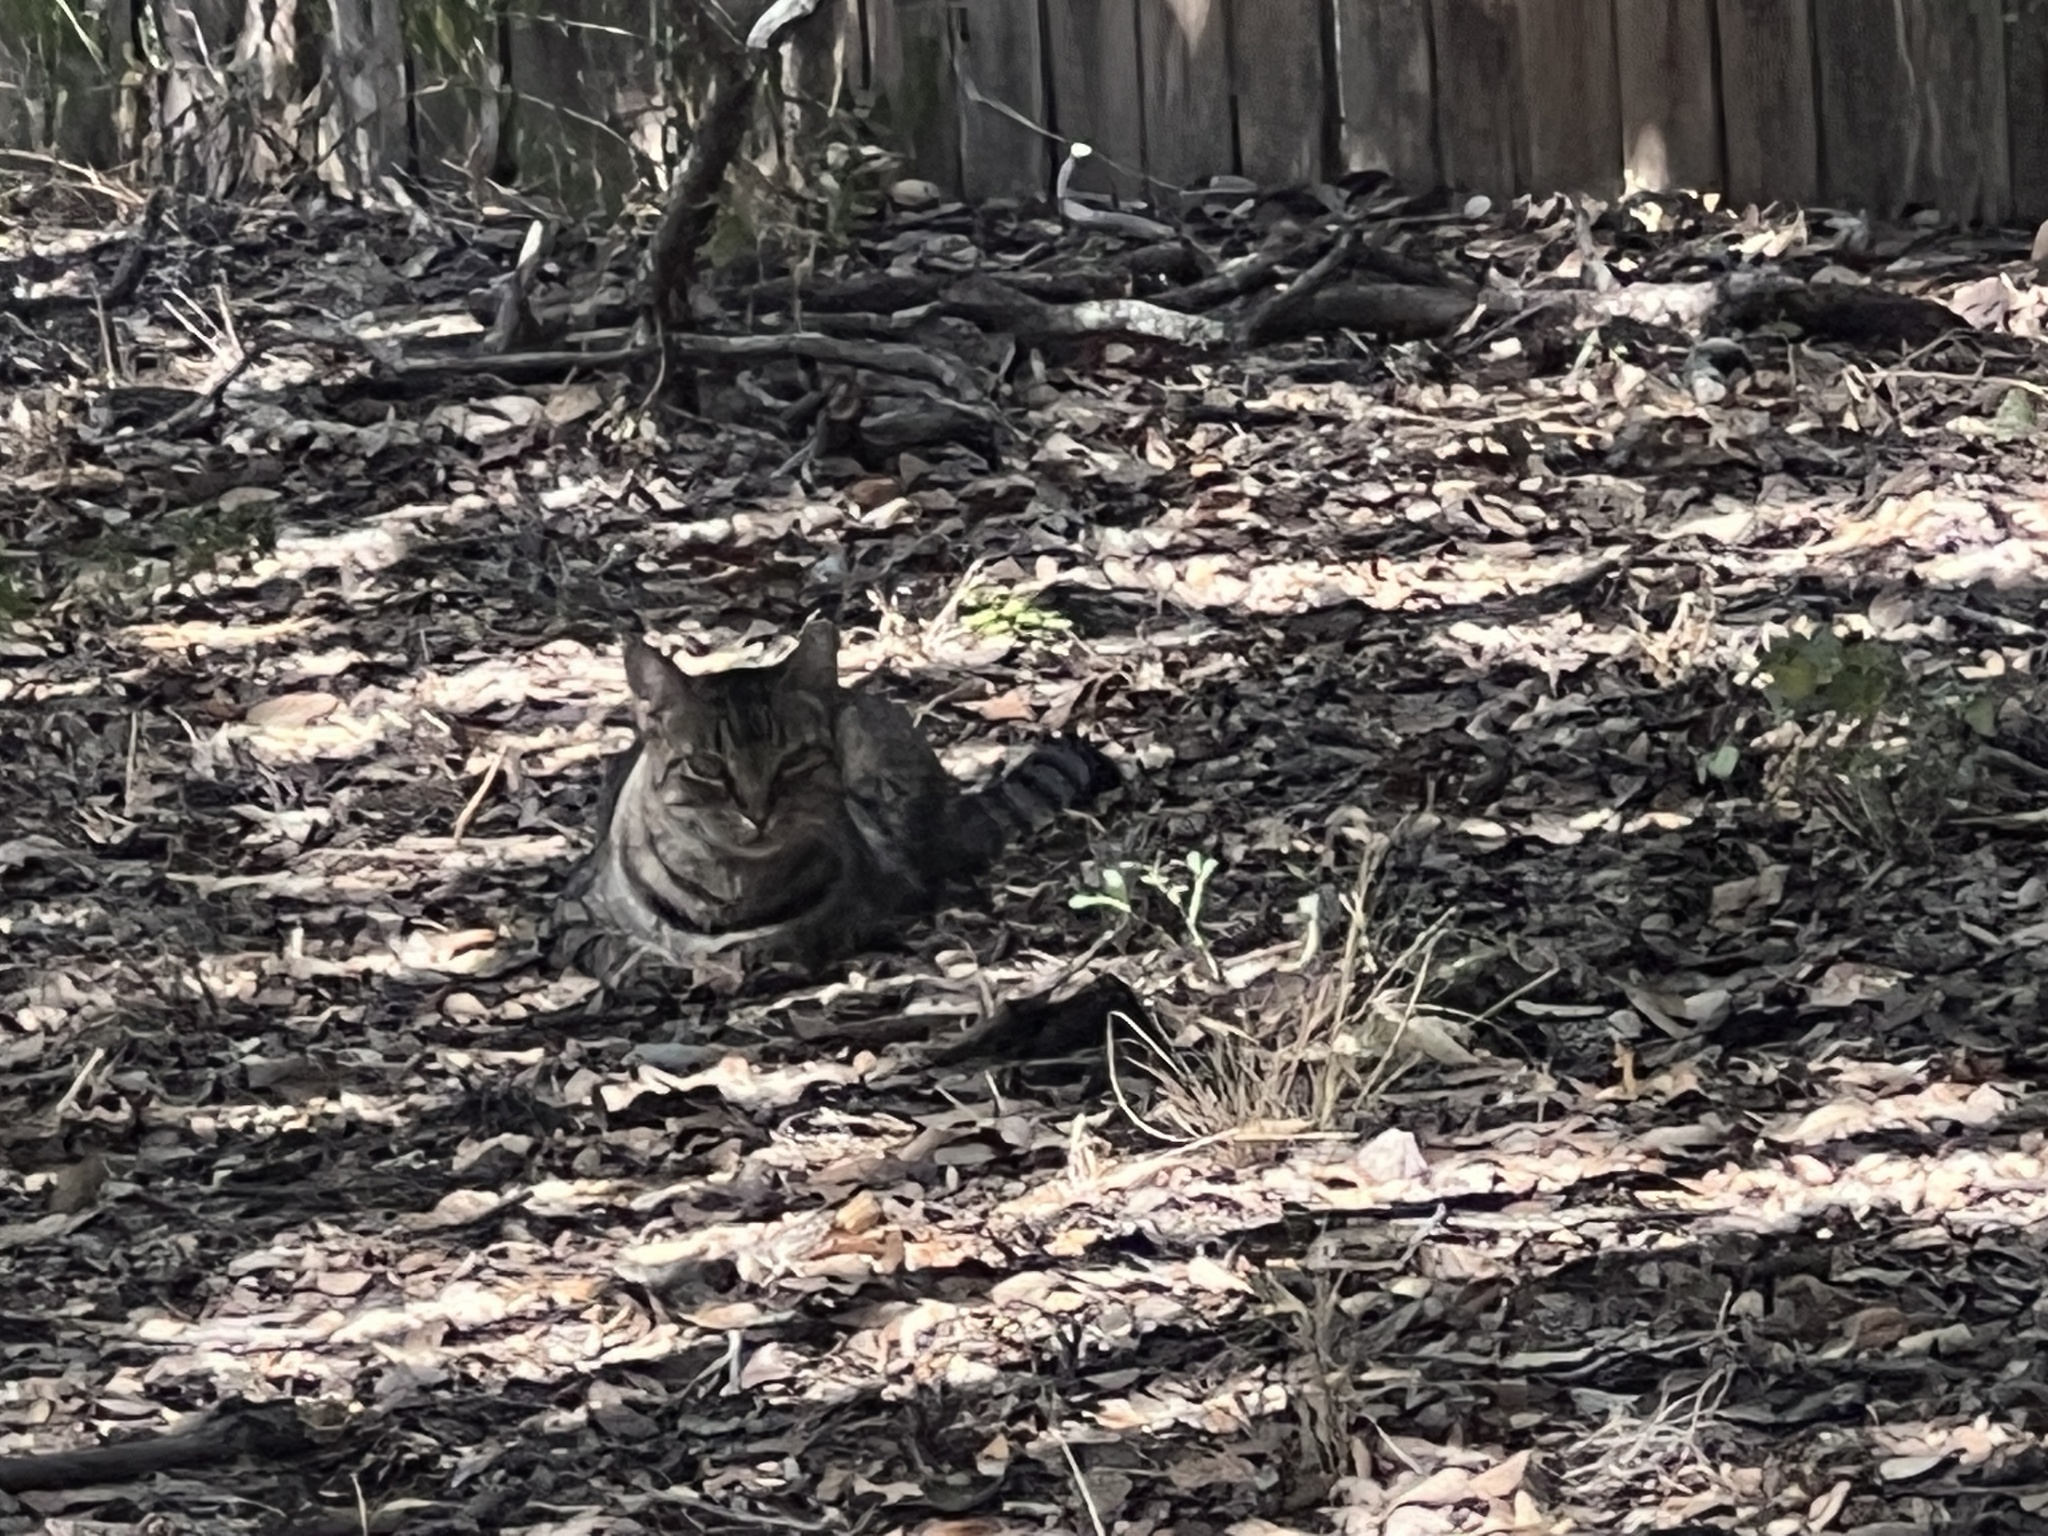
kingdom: Animalia
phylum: Chordata
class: Mammalia
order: Carnivora
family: Felidae
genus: Felis
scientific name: Felis catus
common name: Domestic cat
